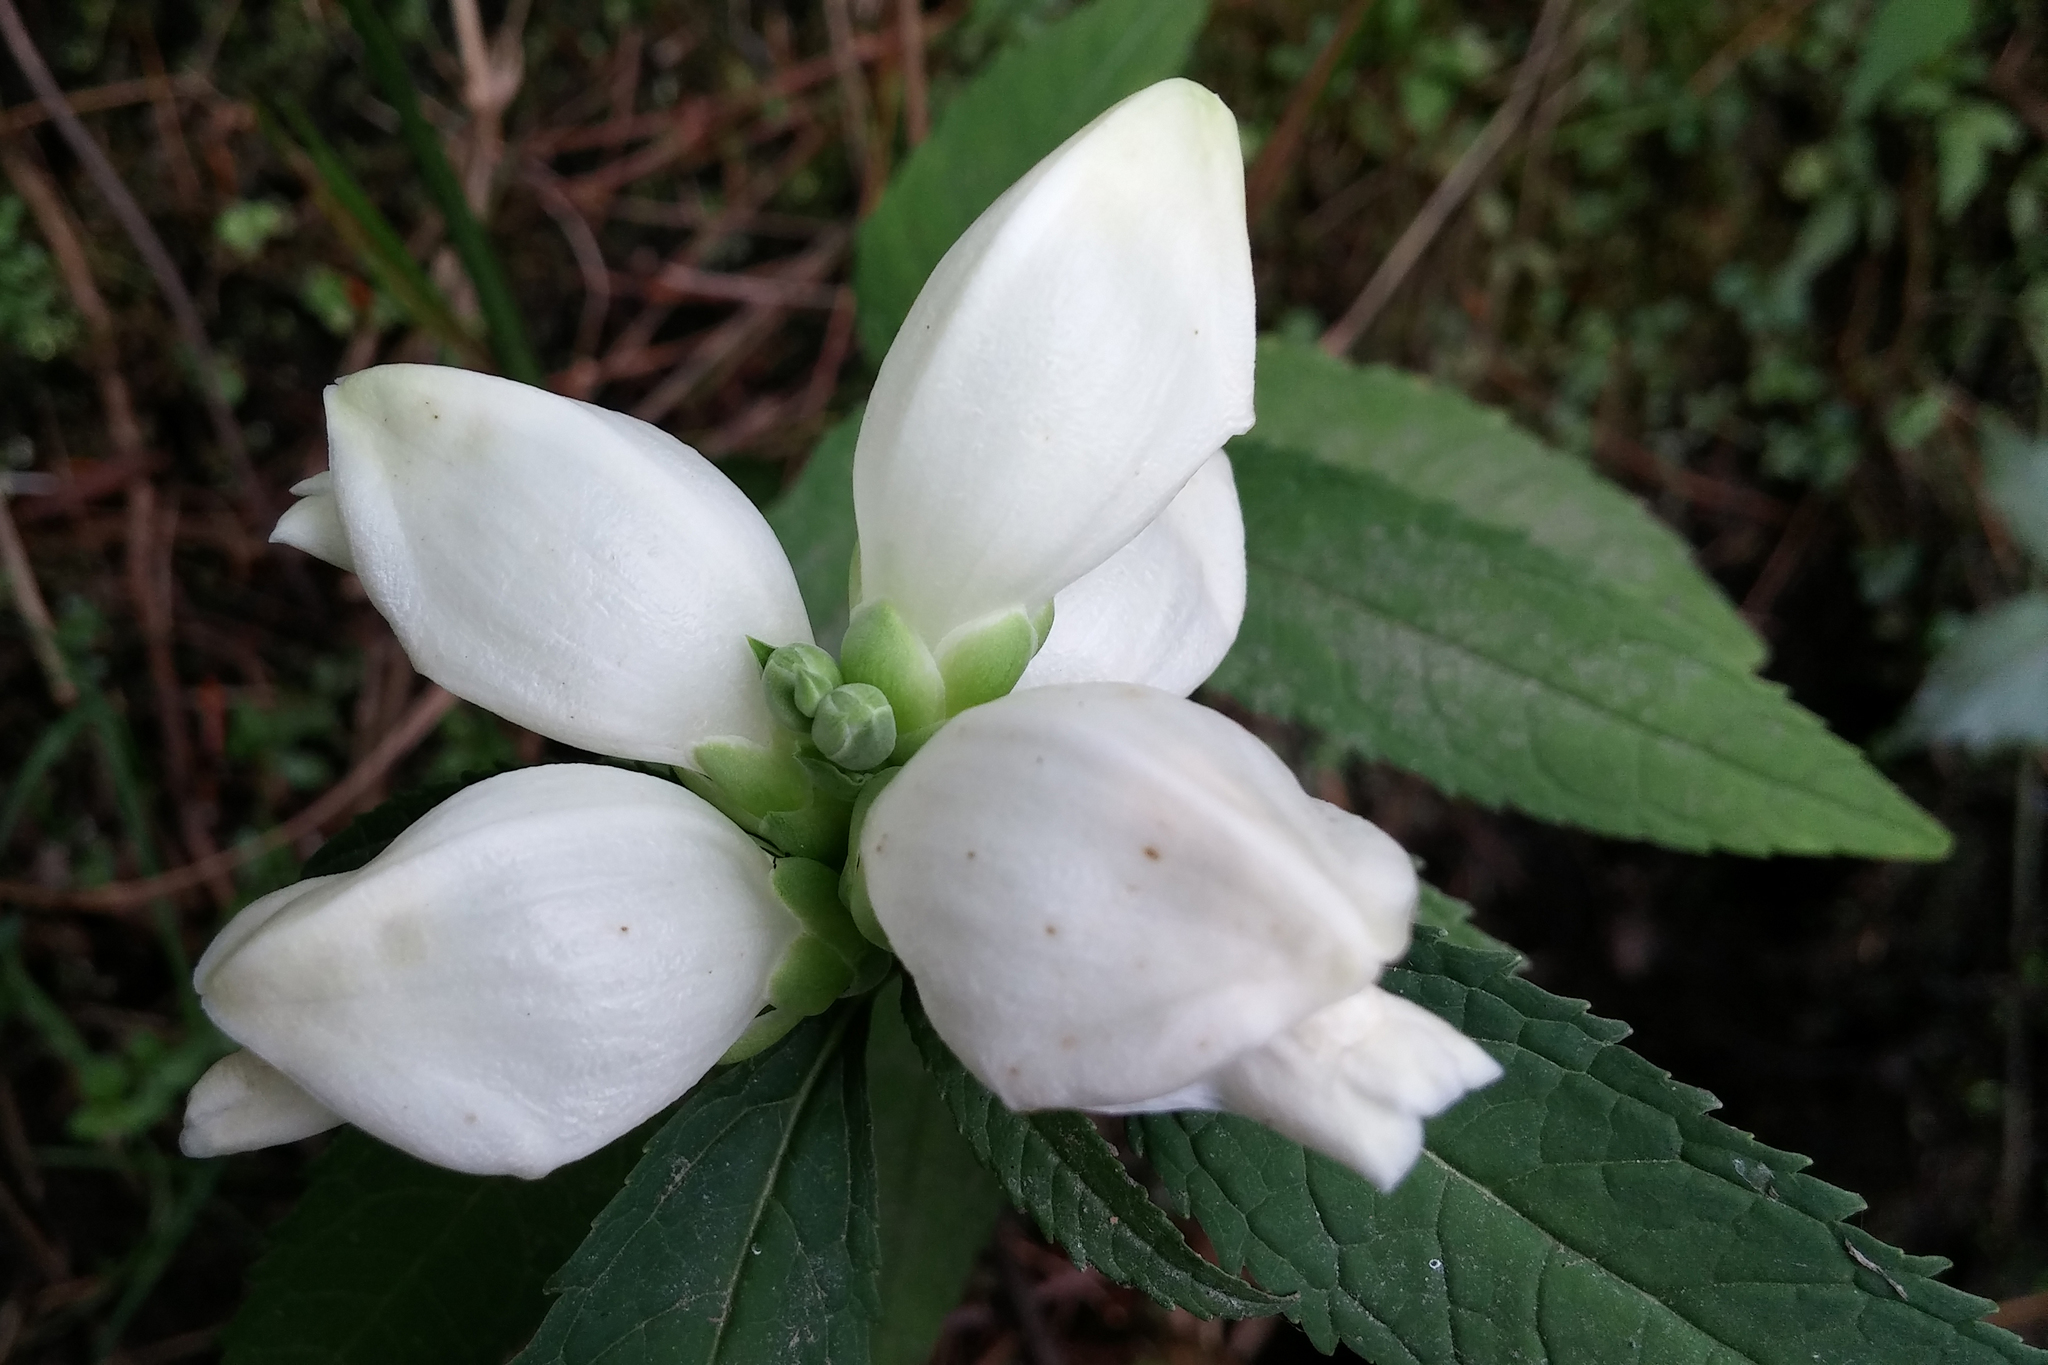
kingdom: Plantae
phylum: Tracheophyta
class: Magnoliopsida
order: Lamiales
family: Plantaginaceae
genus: Chelone
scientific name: Chelone glabra
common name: Snakehead
